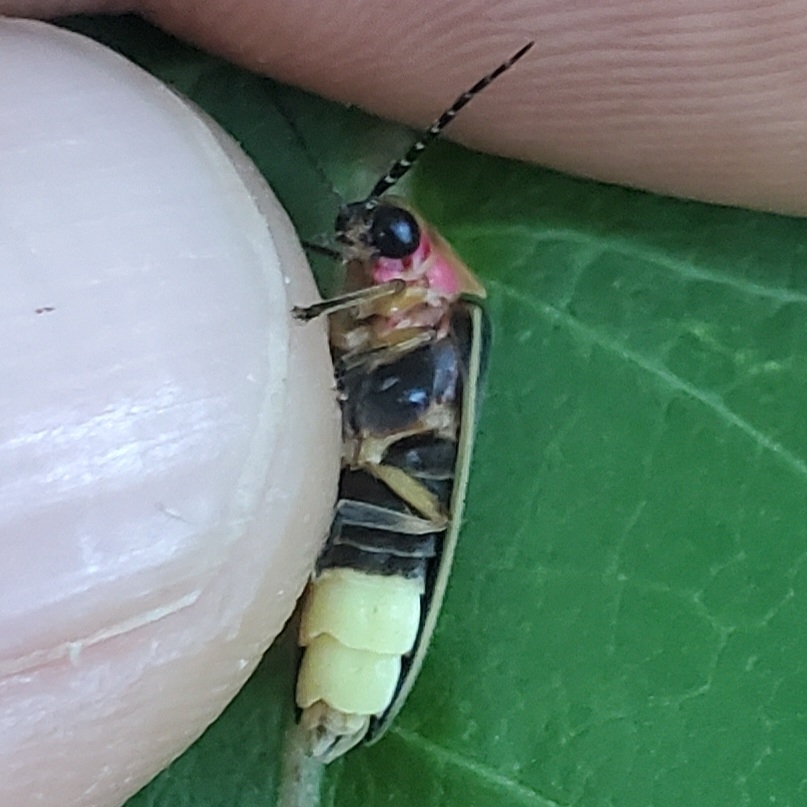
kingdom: Animalia
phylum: Arthropoda
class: Insecta
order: Coleoptera
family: Lampyridae
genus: Photinus
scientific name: Photinus pyralis
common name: Big dipper firefly
